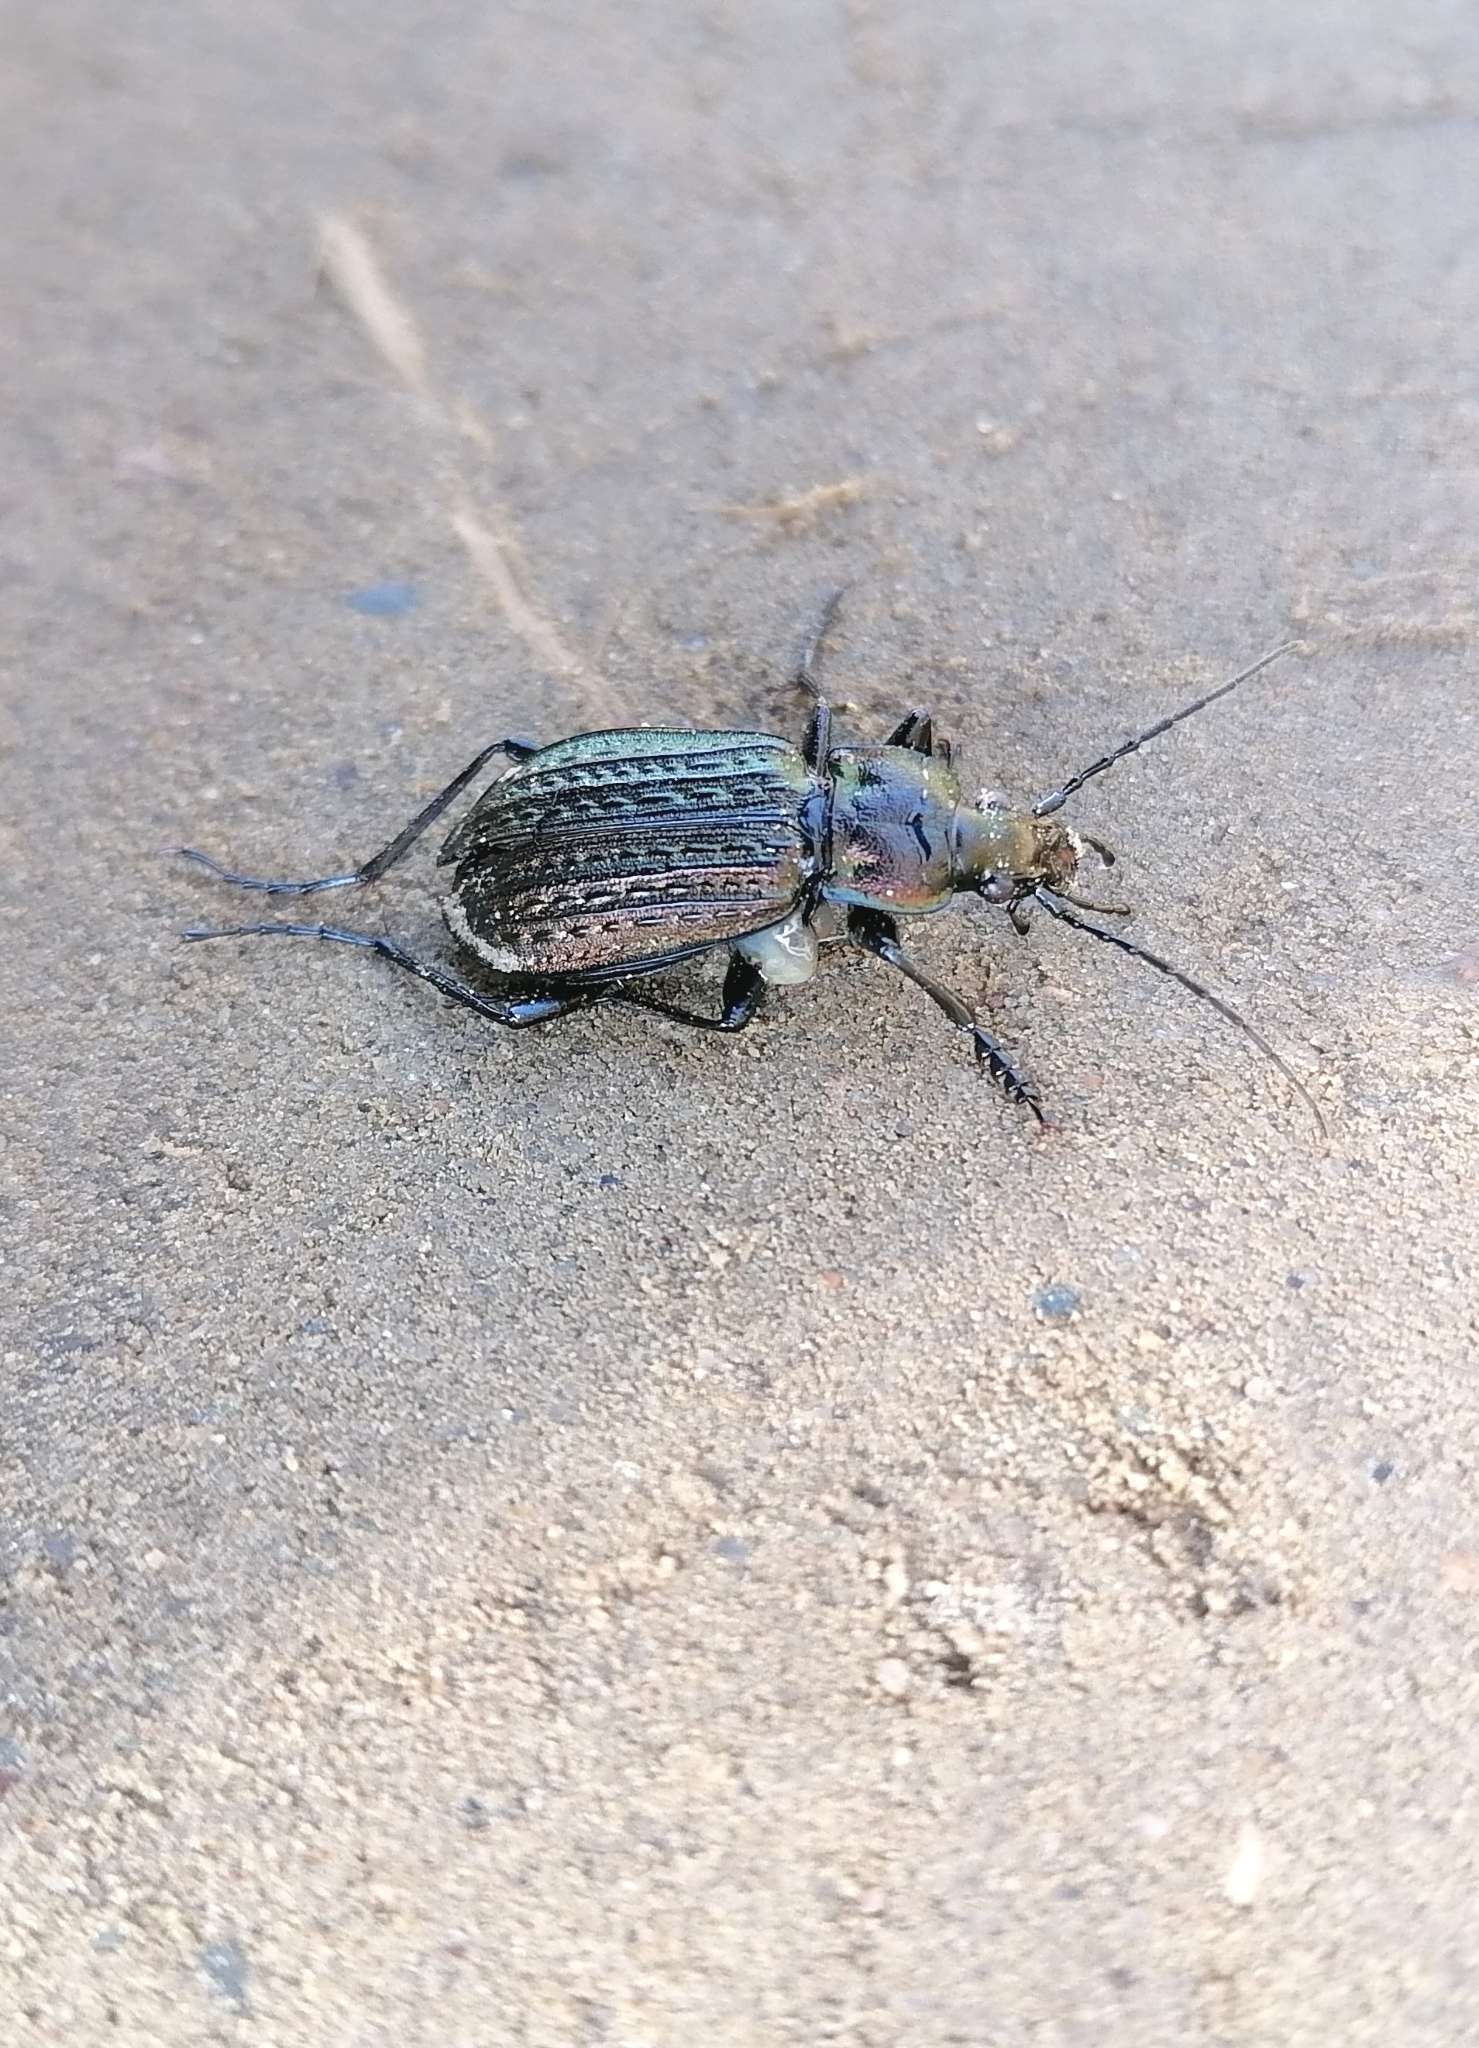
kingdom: Animalia
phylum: Arthropoda
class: Insecta
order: Coleoptera
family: Carabidae
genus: Carabus
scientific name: Carabus granulatus
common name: Granulate ground beetle
